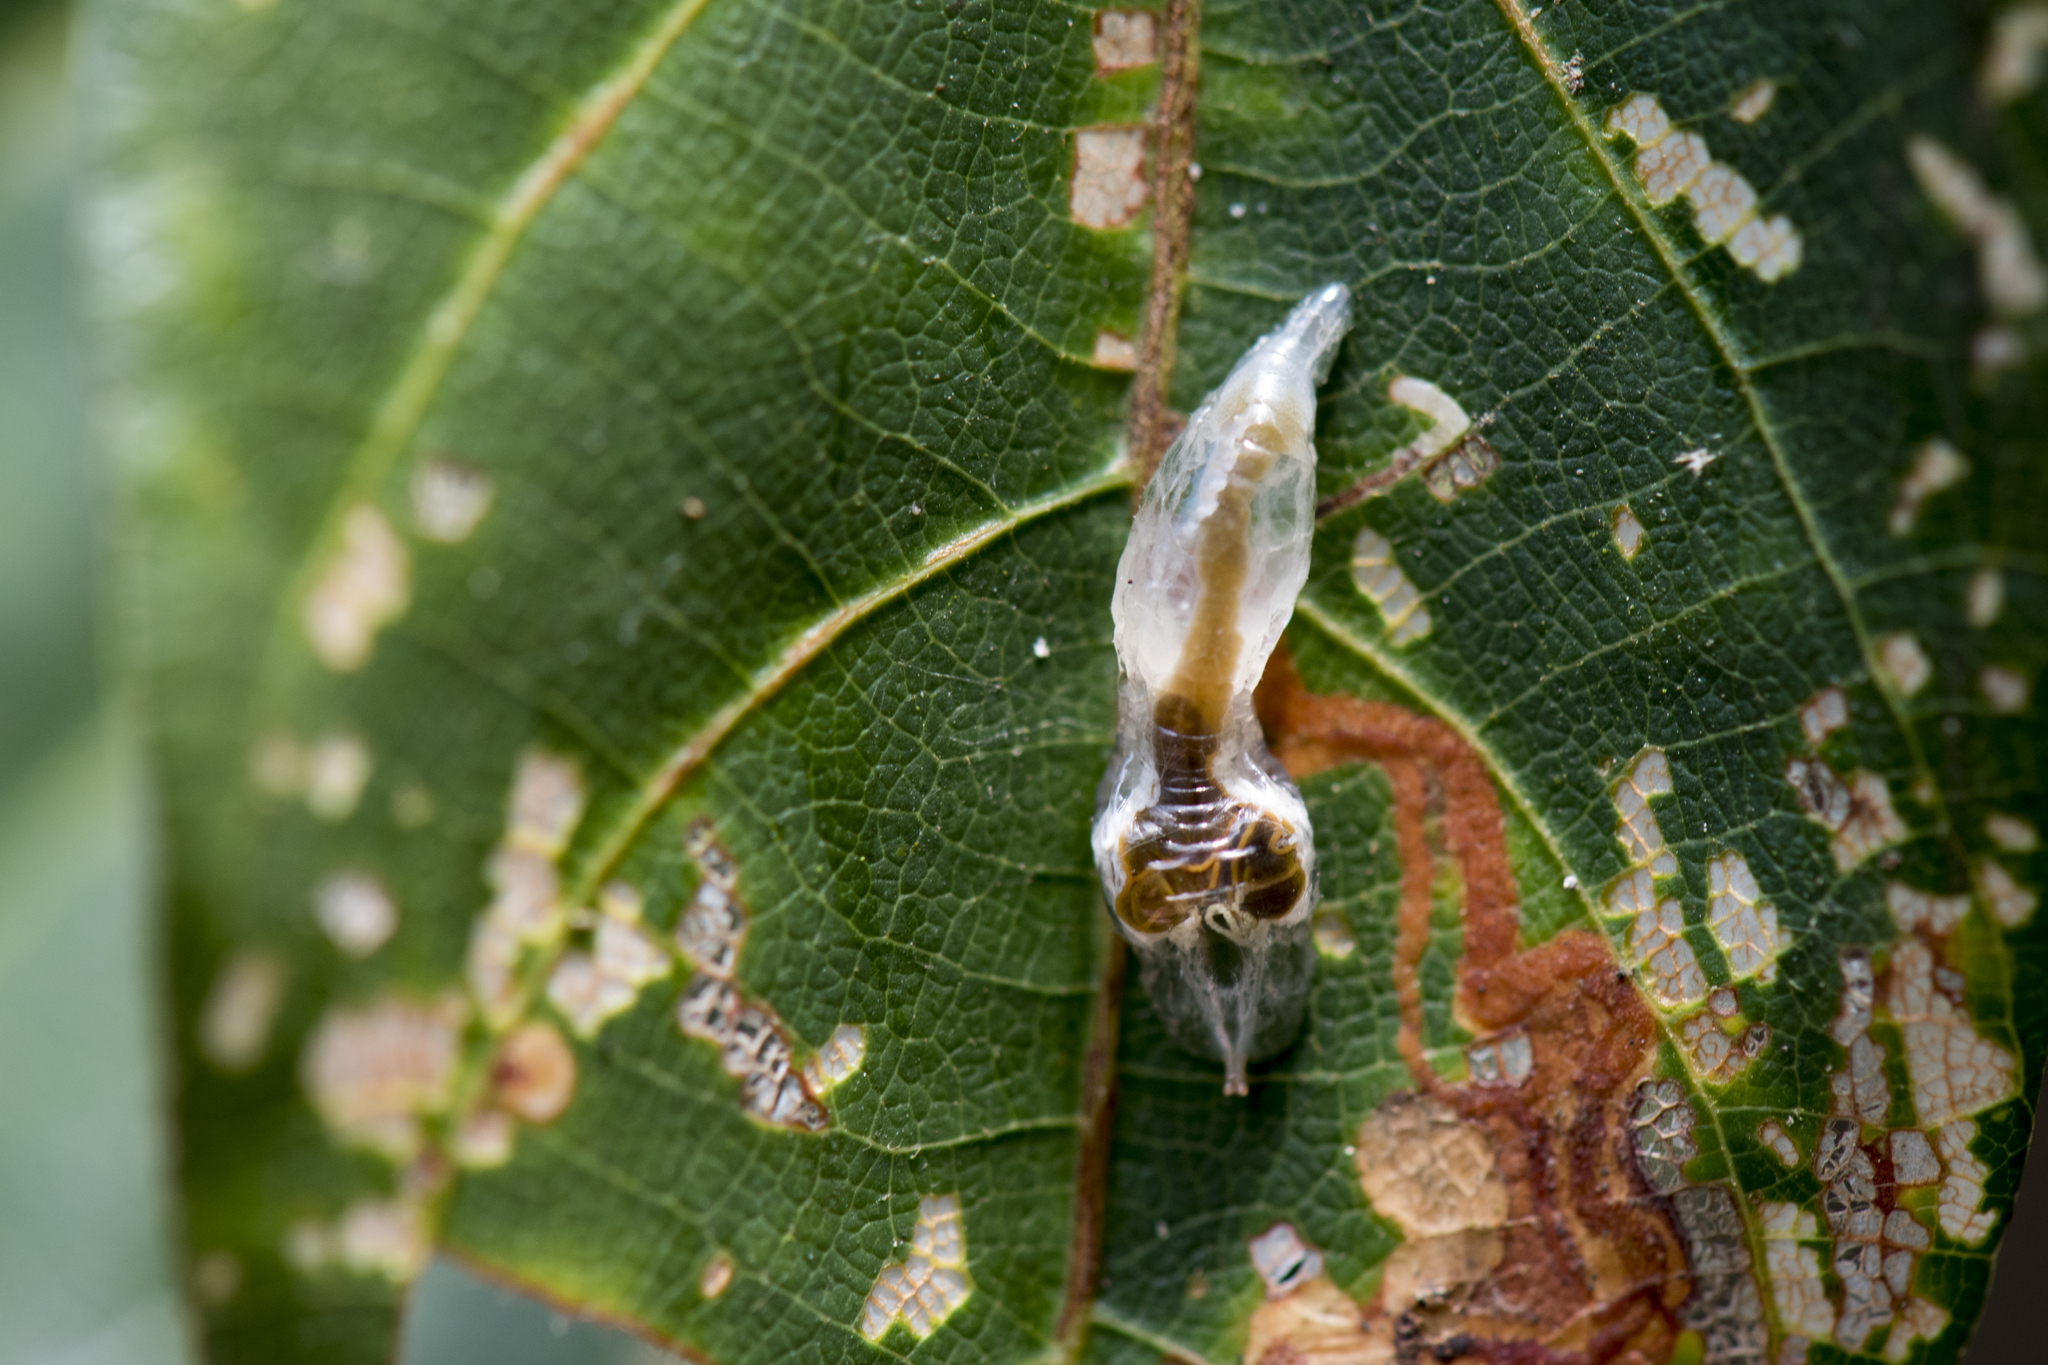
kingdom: Animalia
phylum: Arthropoda
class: Insecta
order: Diptera
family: Syrphidae
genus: Dideopsis
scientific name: Dideopsis aegrota
